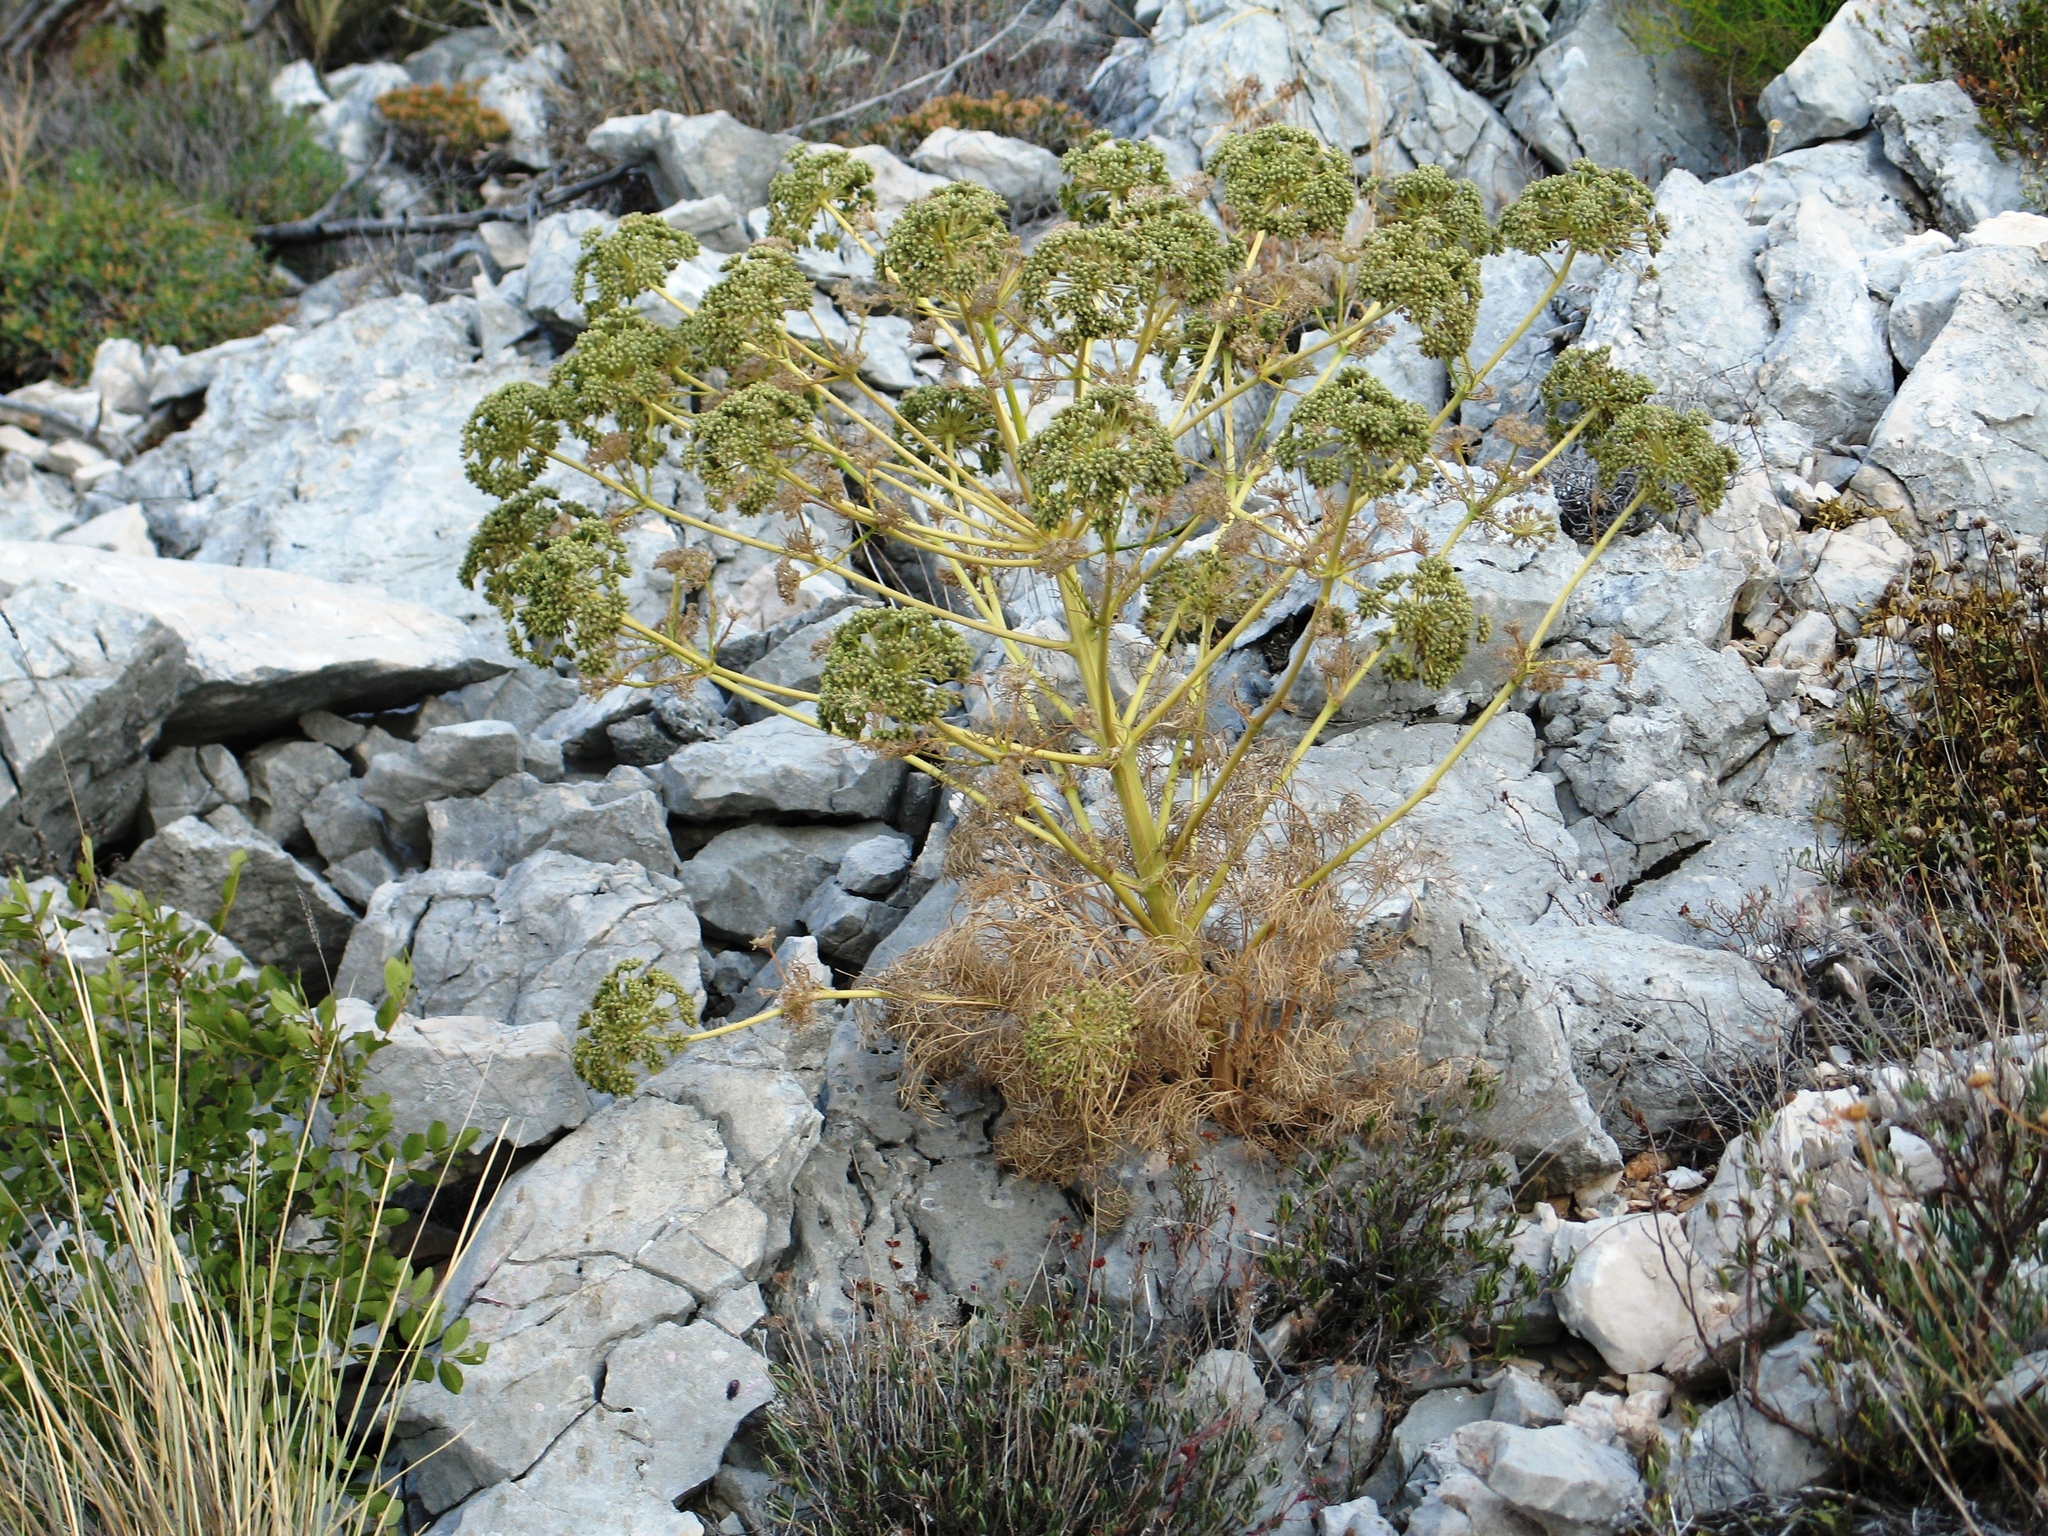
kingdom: Plantae
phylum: Tracheophyta
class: Magnoliopsida
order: Apiales
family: Apiaceae
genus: Athamanta
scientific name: Athamanta ramosissima
